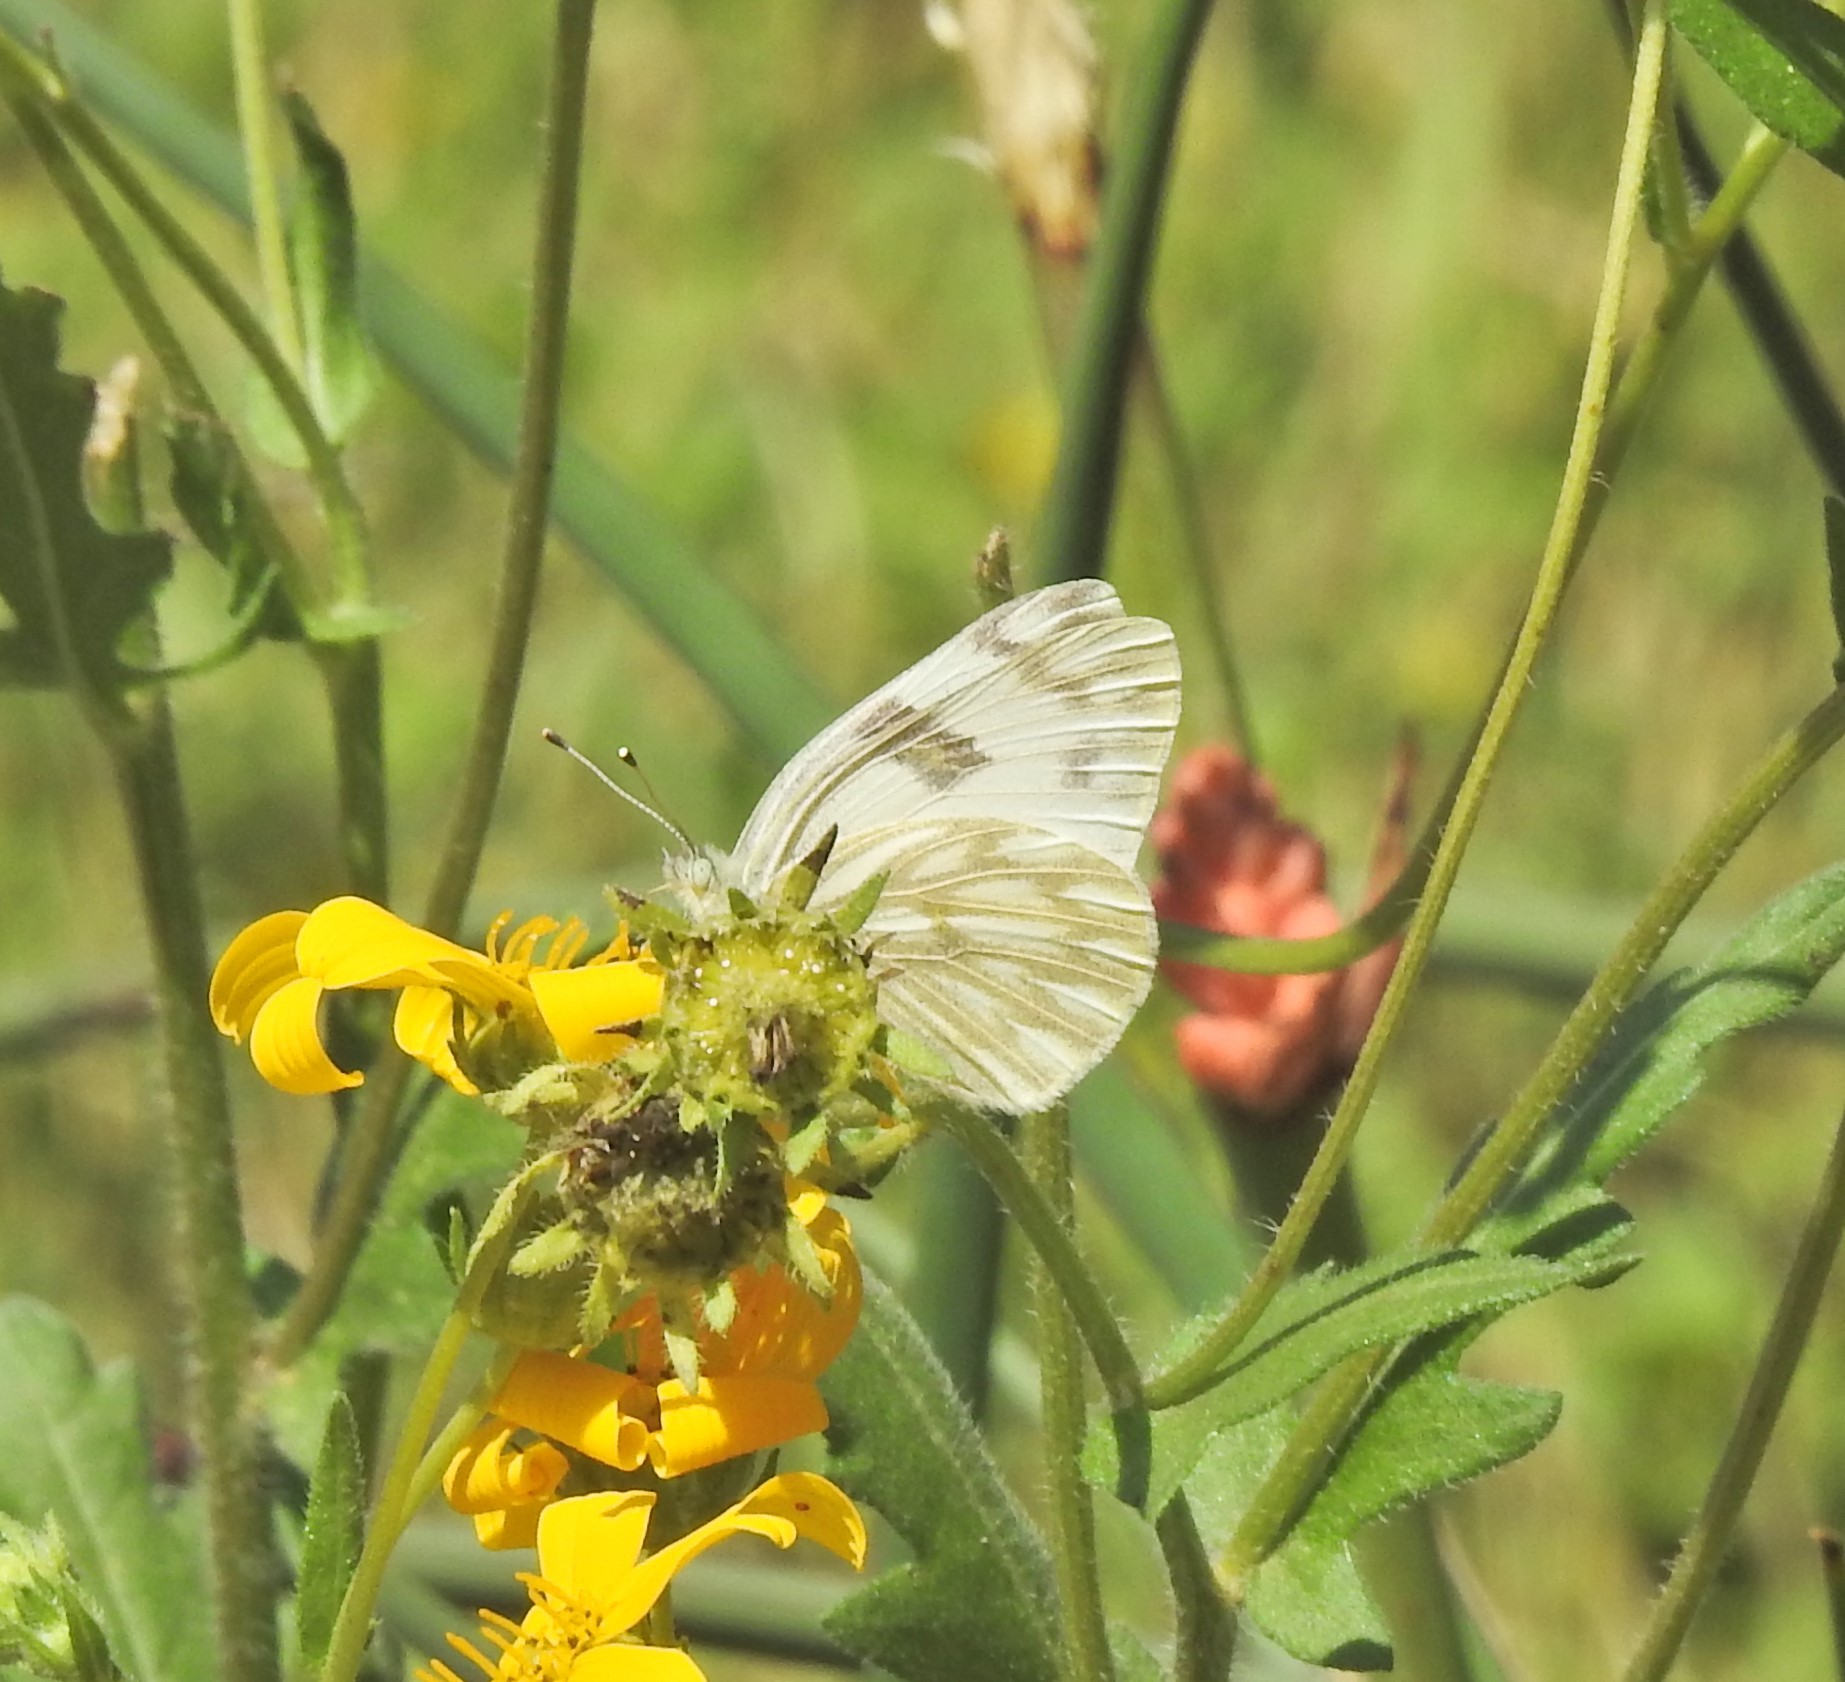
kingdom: Animalia
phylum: Arthropoda
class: Insecta
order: Lepidoptera
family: Pieridae
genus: Pontia
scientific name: Pontia protodice
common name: Checkered white
